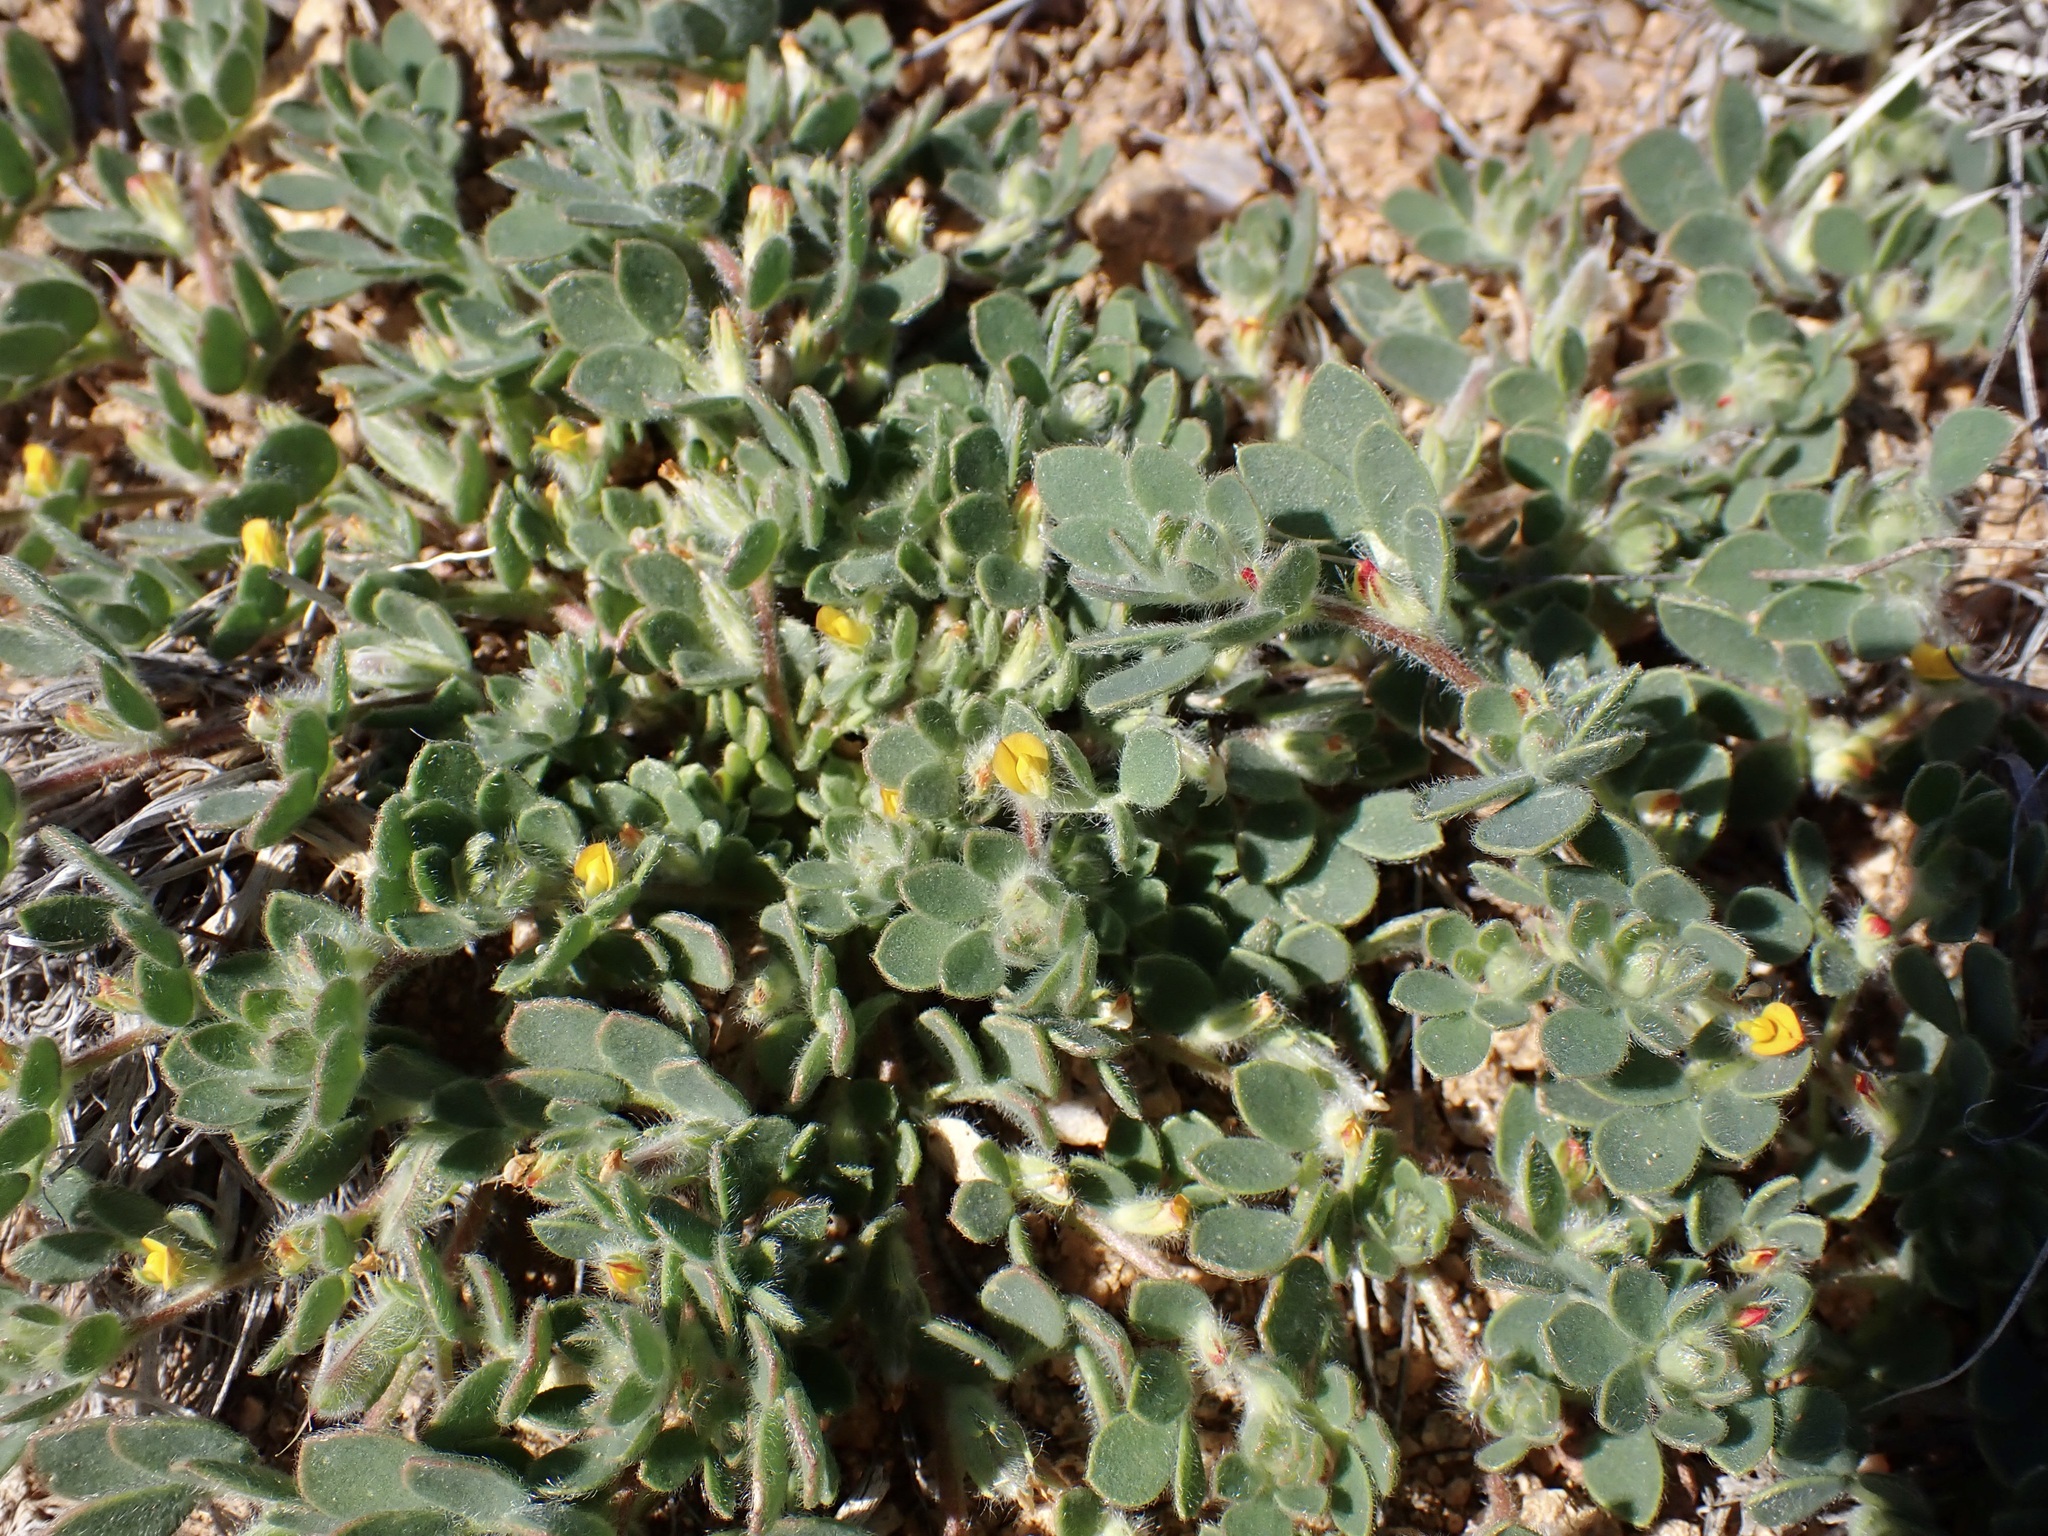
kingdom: Plantae
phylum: Tracheophyta
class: Magnoliopsida
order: Fabales
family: Fabaceae
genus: Acmispon
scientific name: Acmispon brachycarpus
